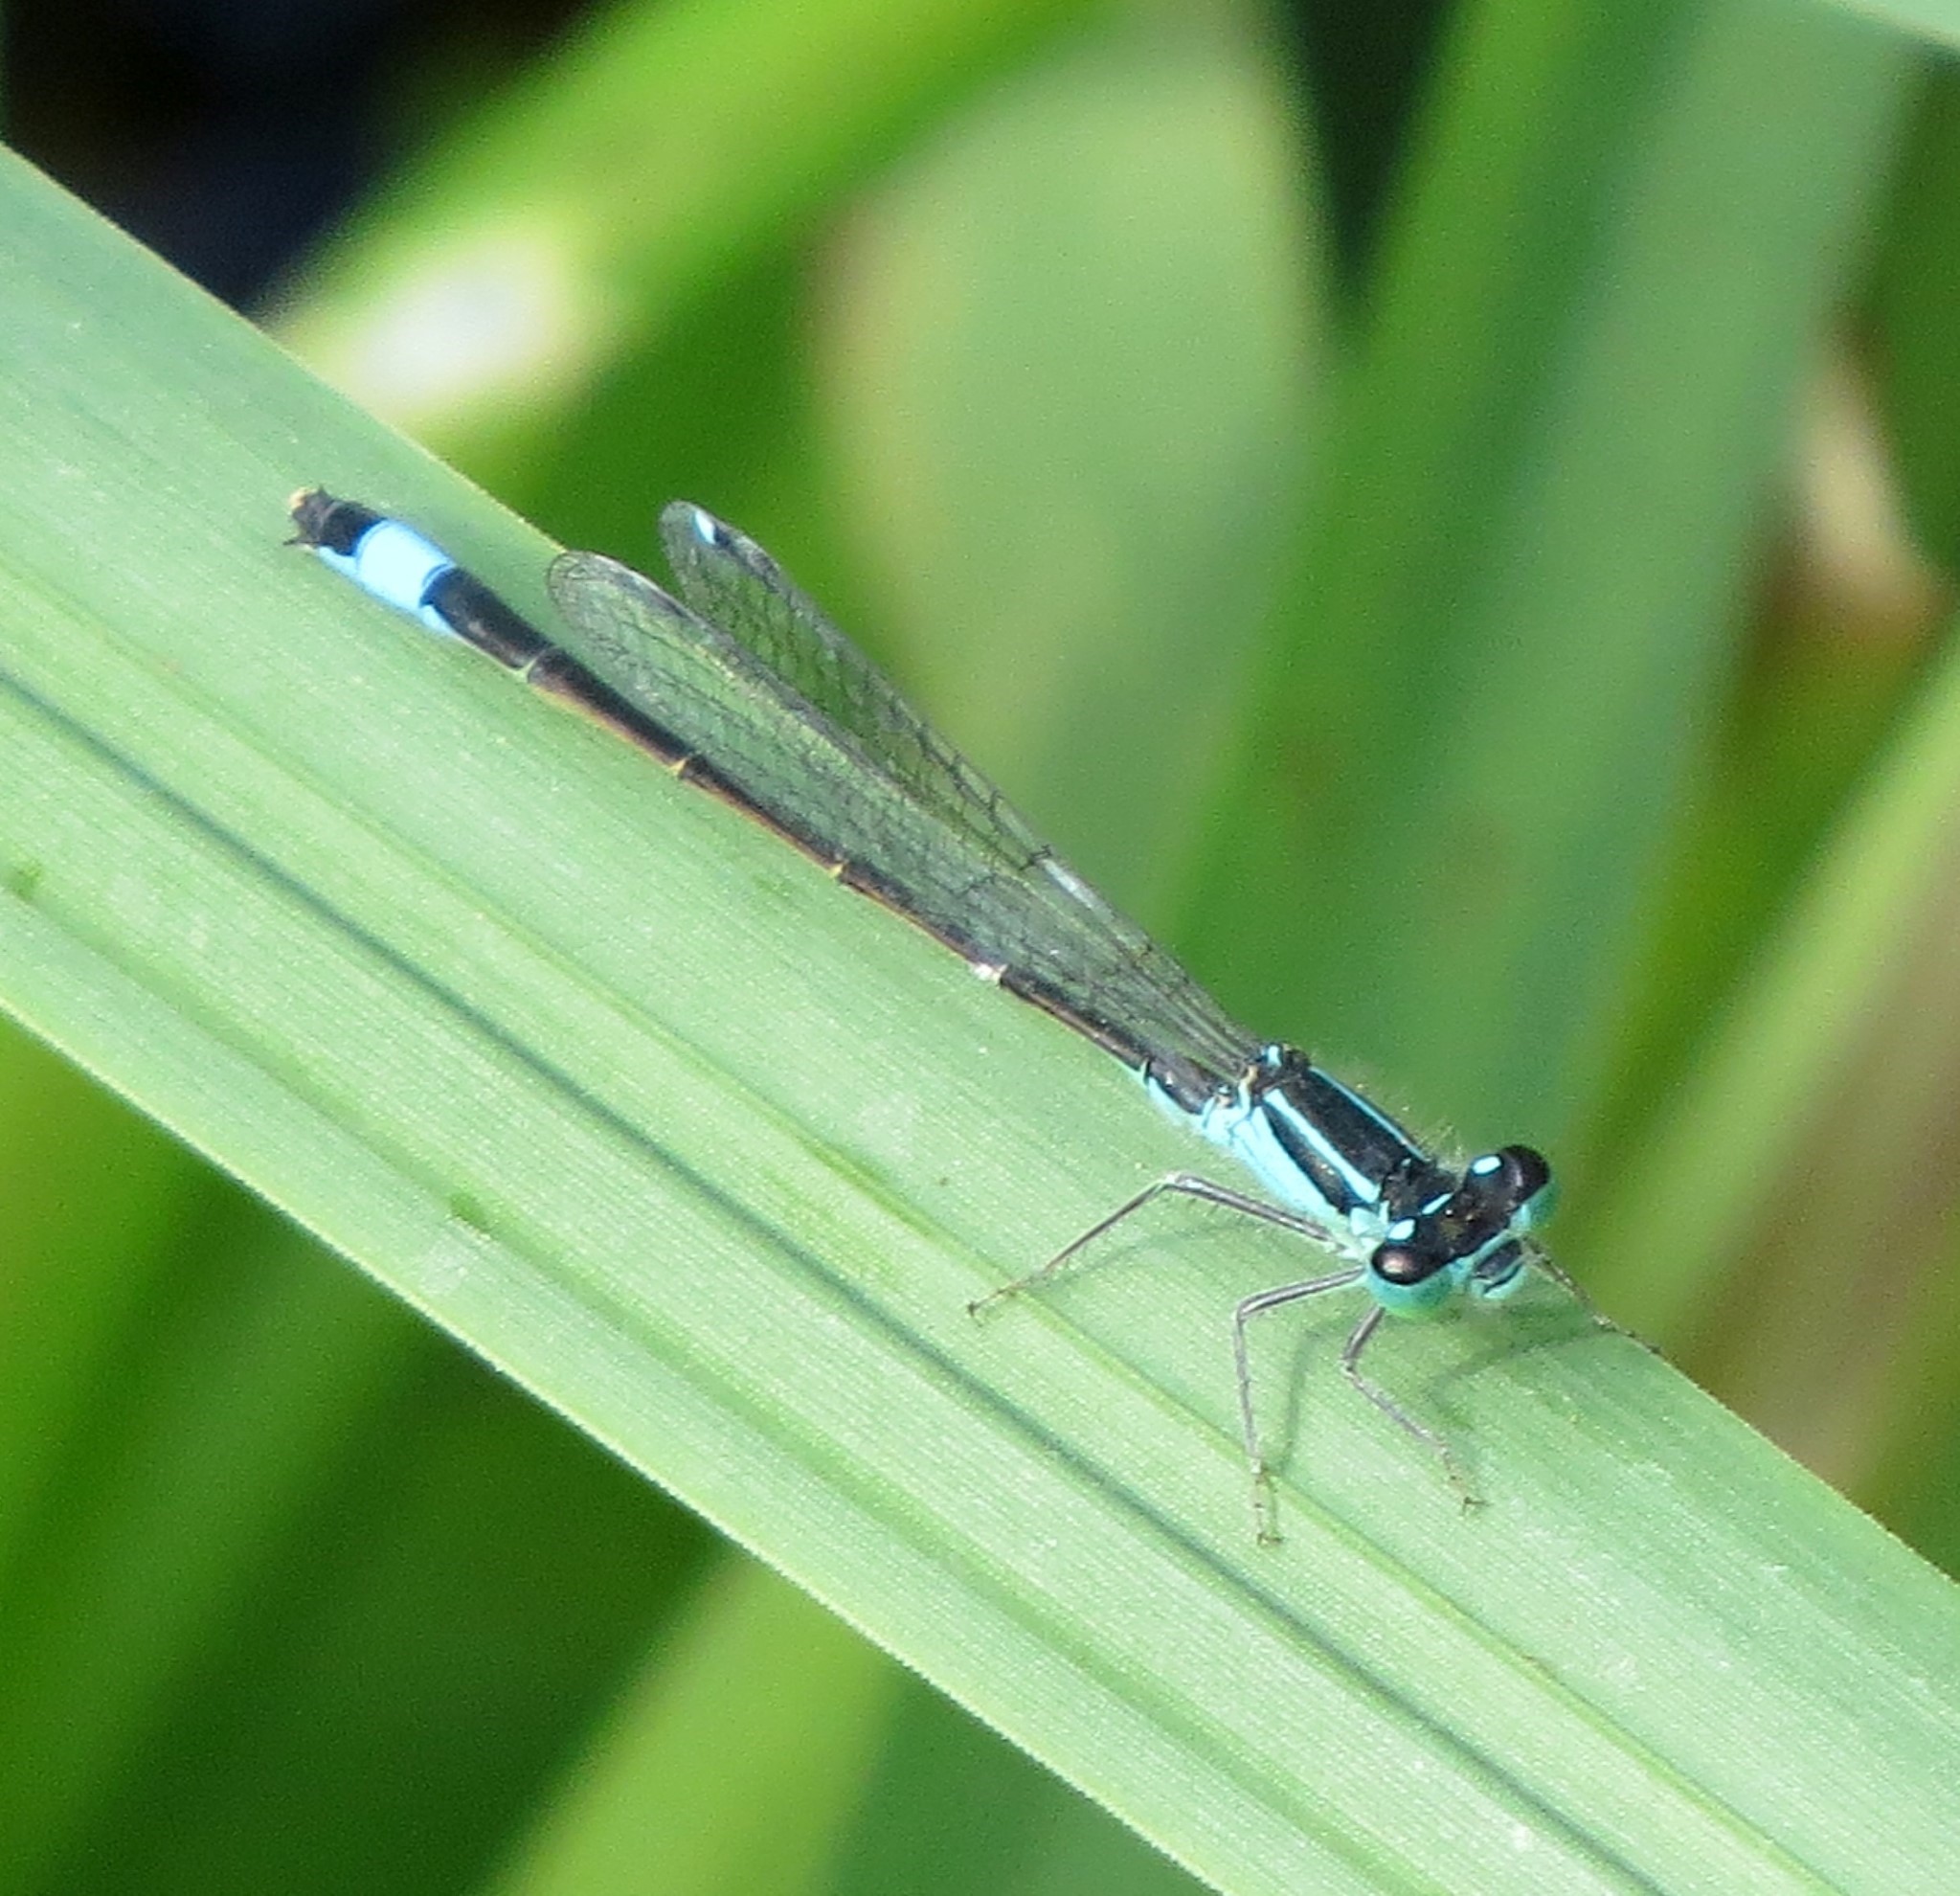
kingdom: Animalia
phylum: Arthropoda
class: Insecta
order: Odonata
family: Coenagrionidae
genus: Ischnura
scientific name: Ischnura elegans
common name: Blue-tailed damselfly
